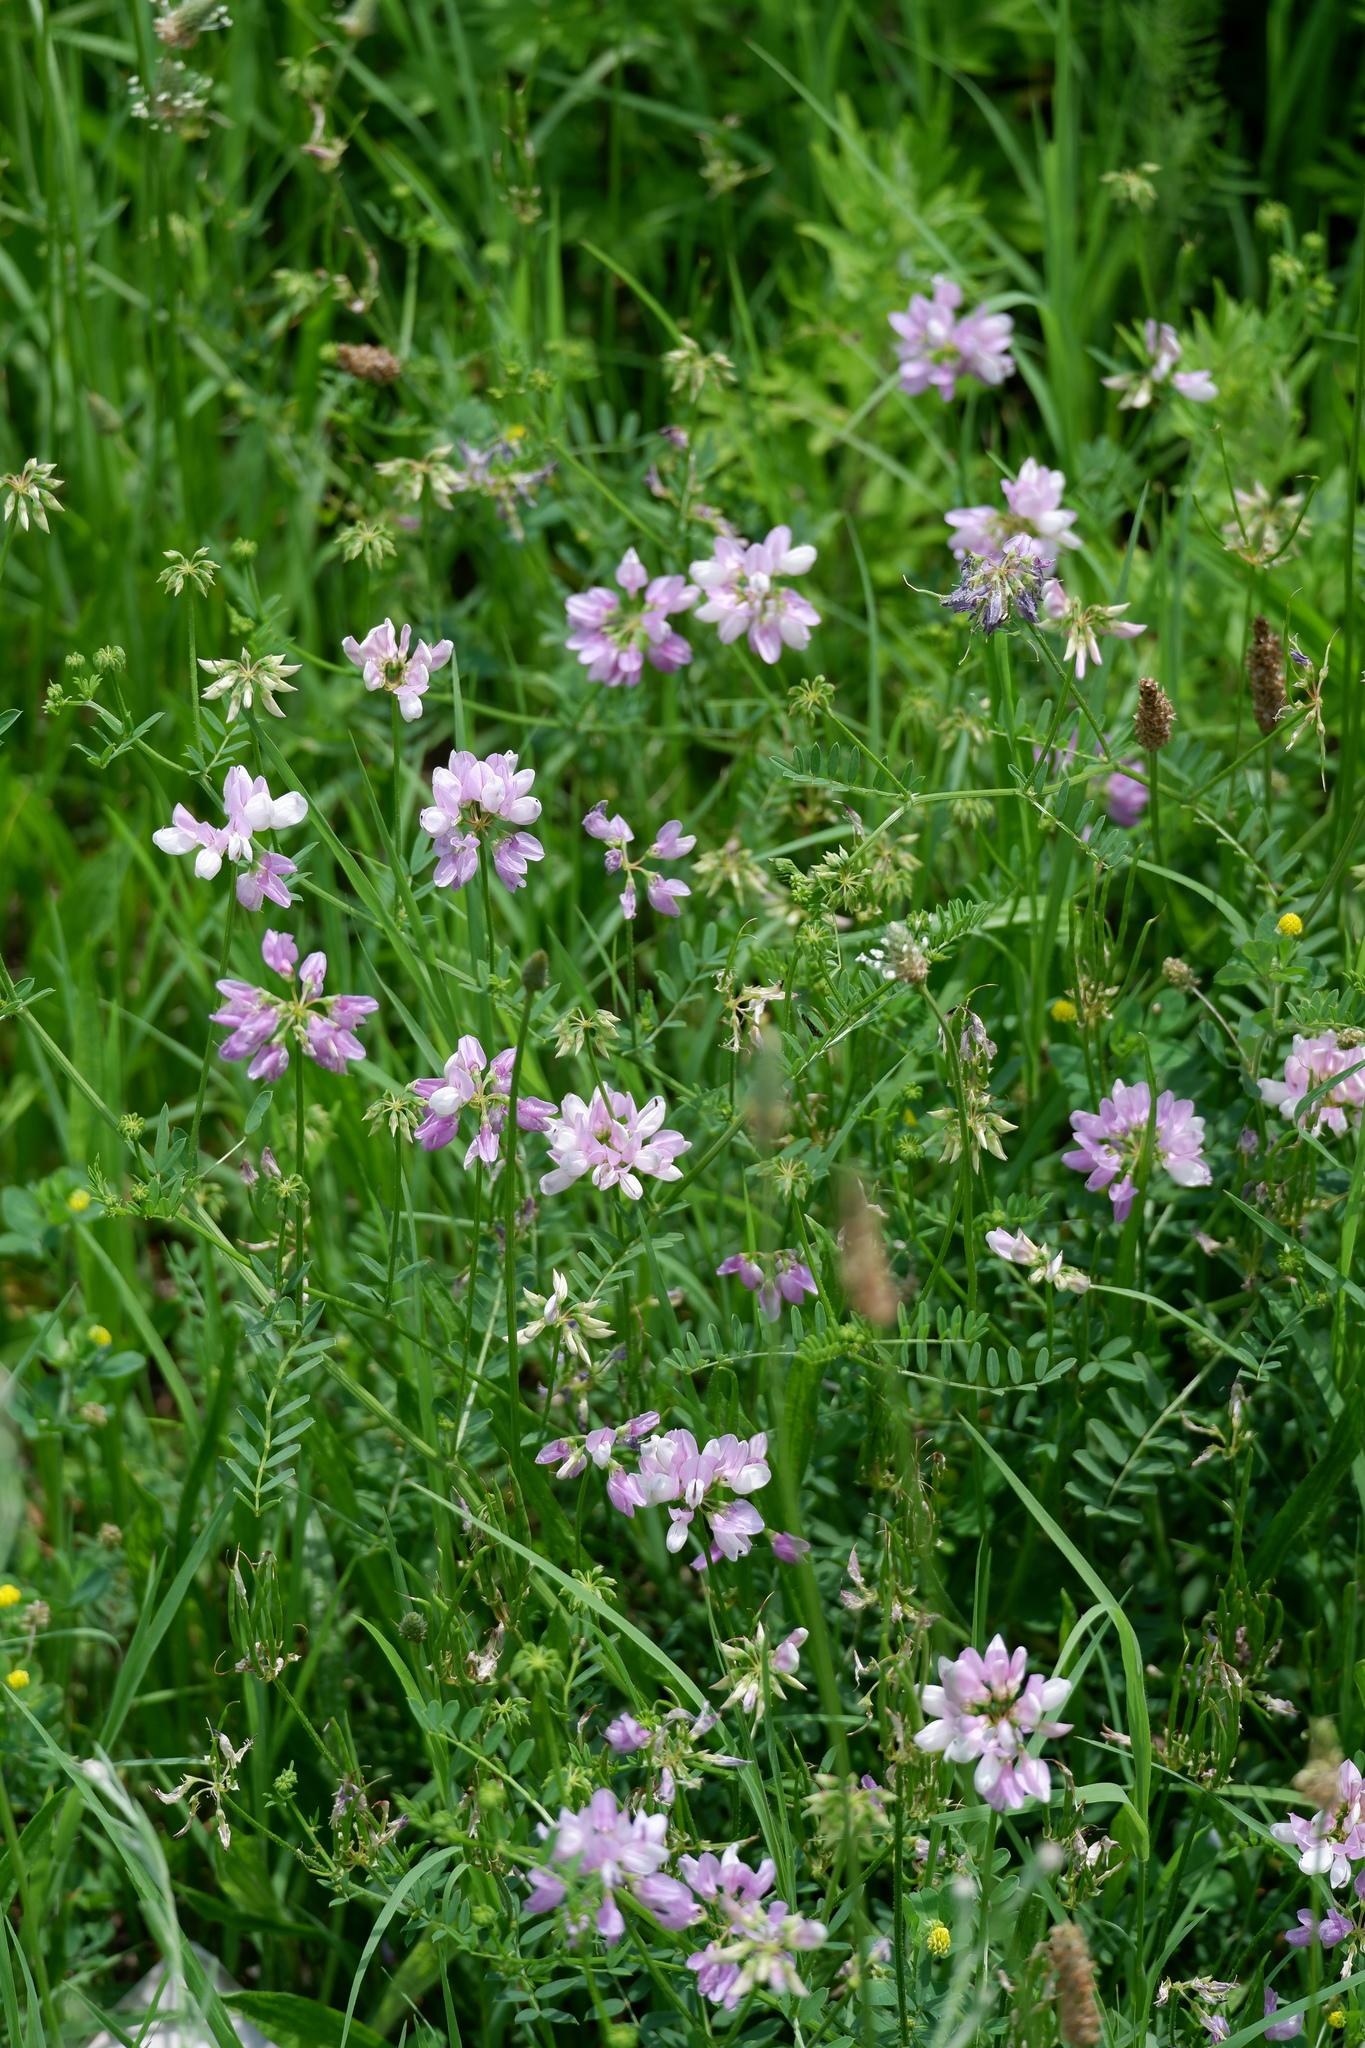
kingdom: Plantae
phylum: Tracheophyta
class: Magnoliopsida
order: Fabales
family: Fabaceae
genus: Coronilla
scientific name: Coronilla varia
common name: Crownvetch
